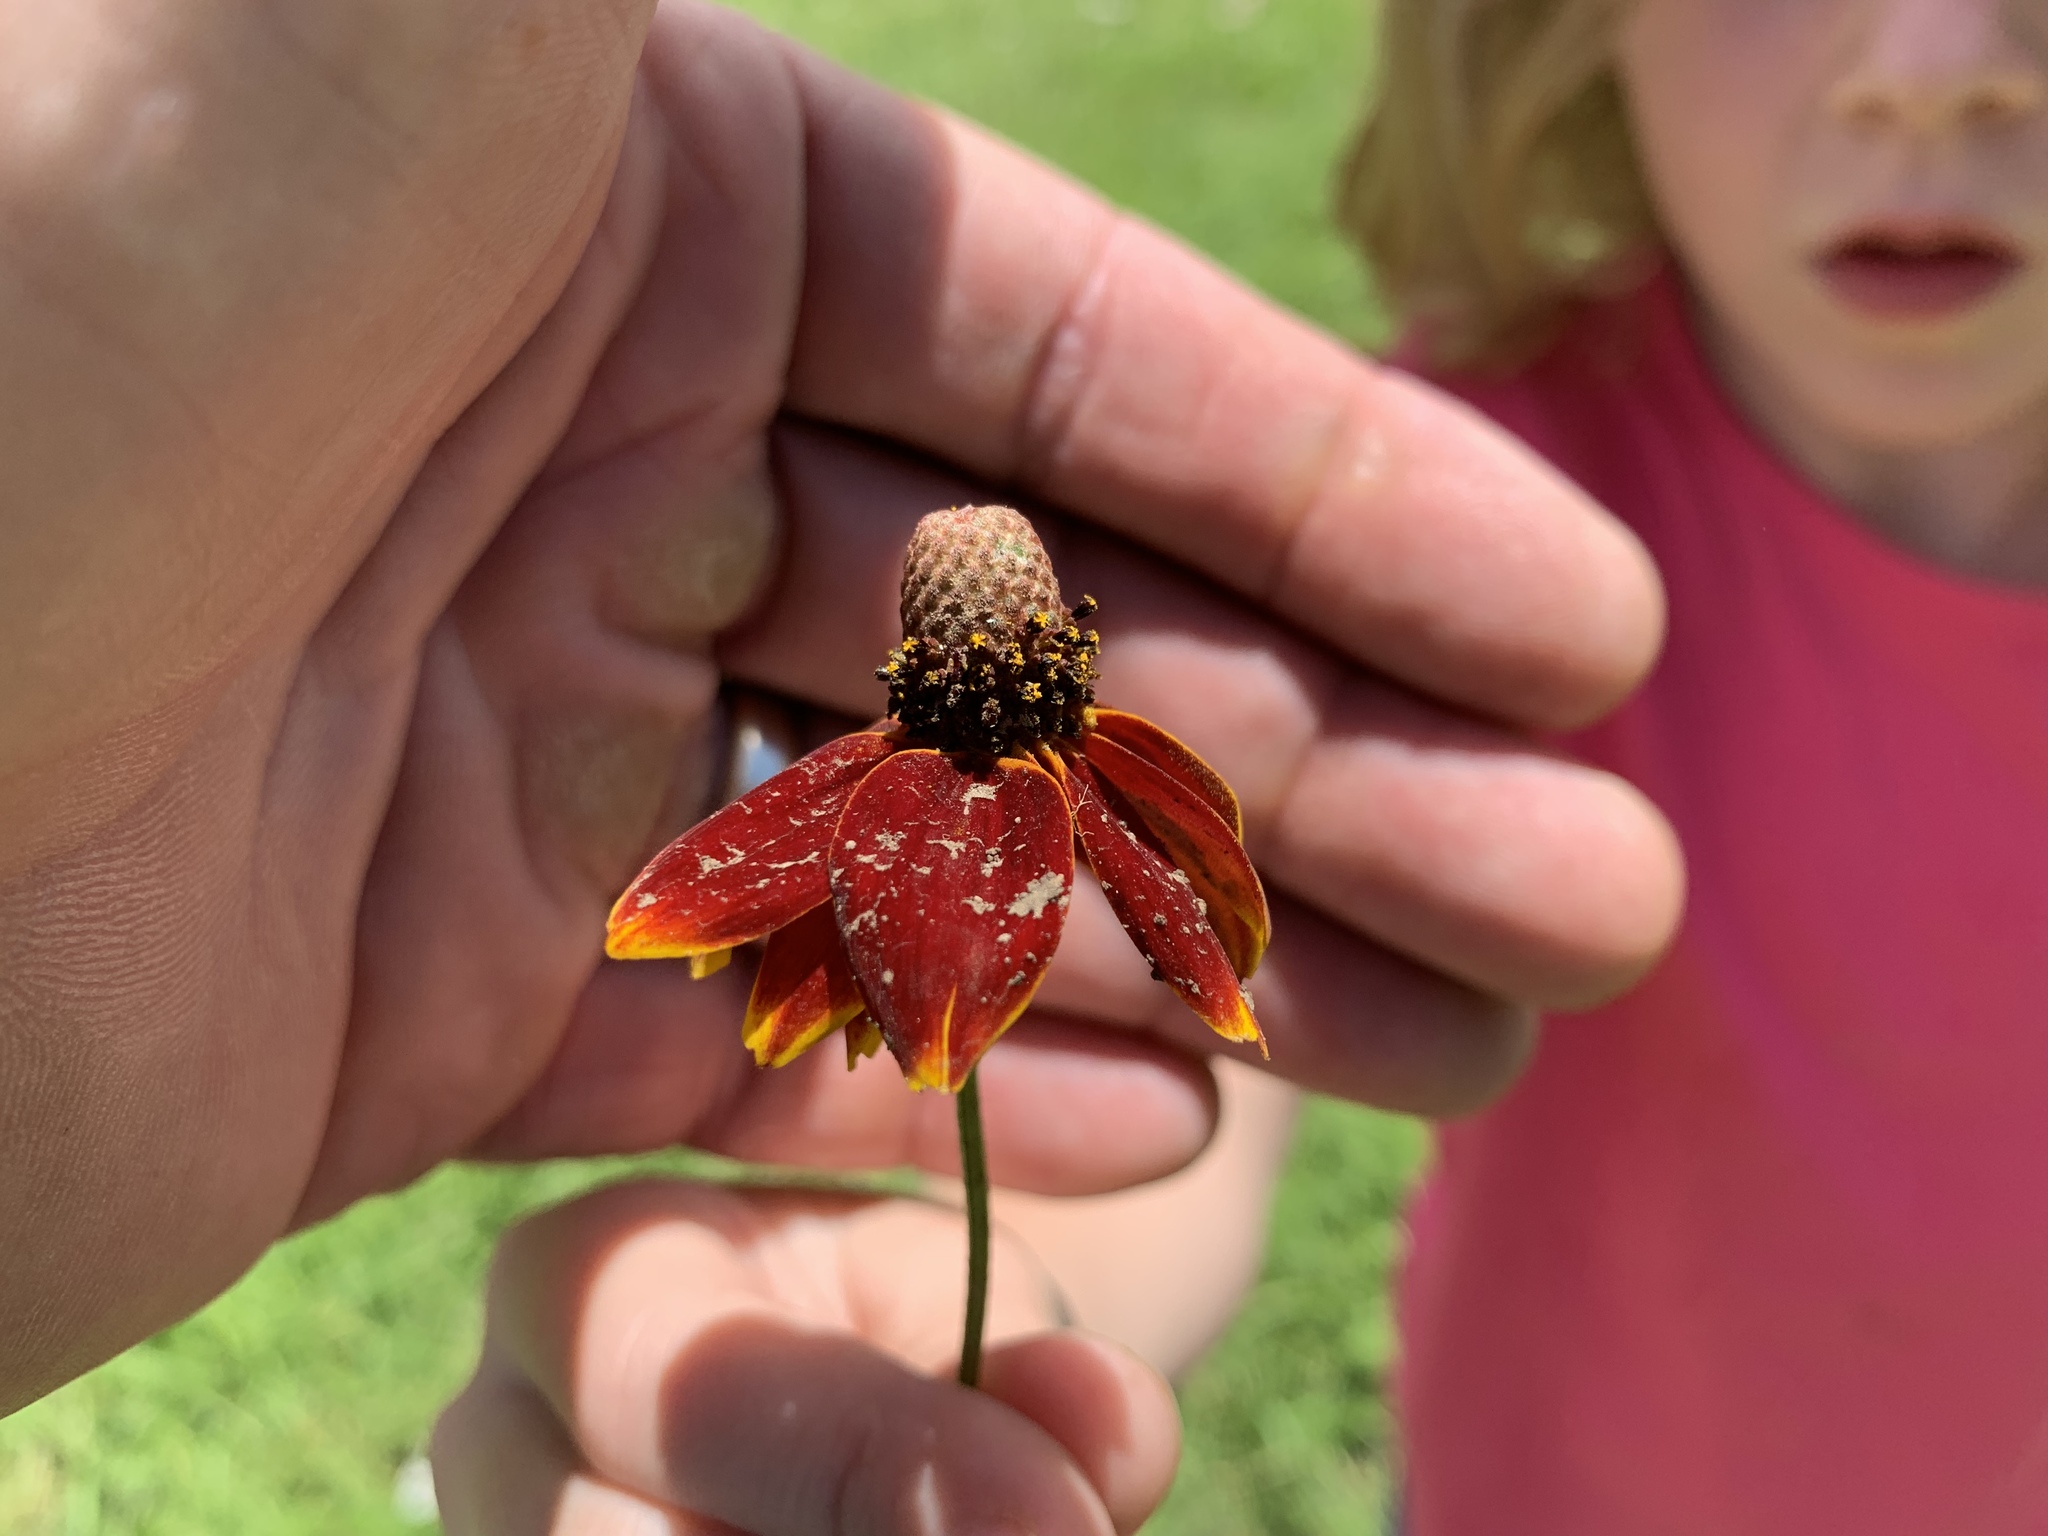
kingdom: Plantae
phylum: Tracheophyta
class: Magnoliopsida
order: Asterales
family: Asteraceae
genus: Ratibida
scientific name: Ratibida columnifera
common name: Prairie coneflower
